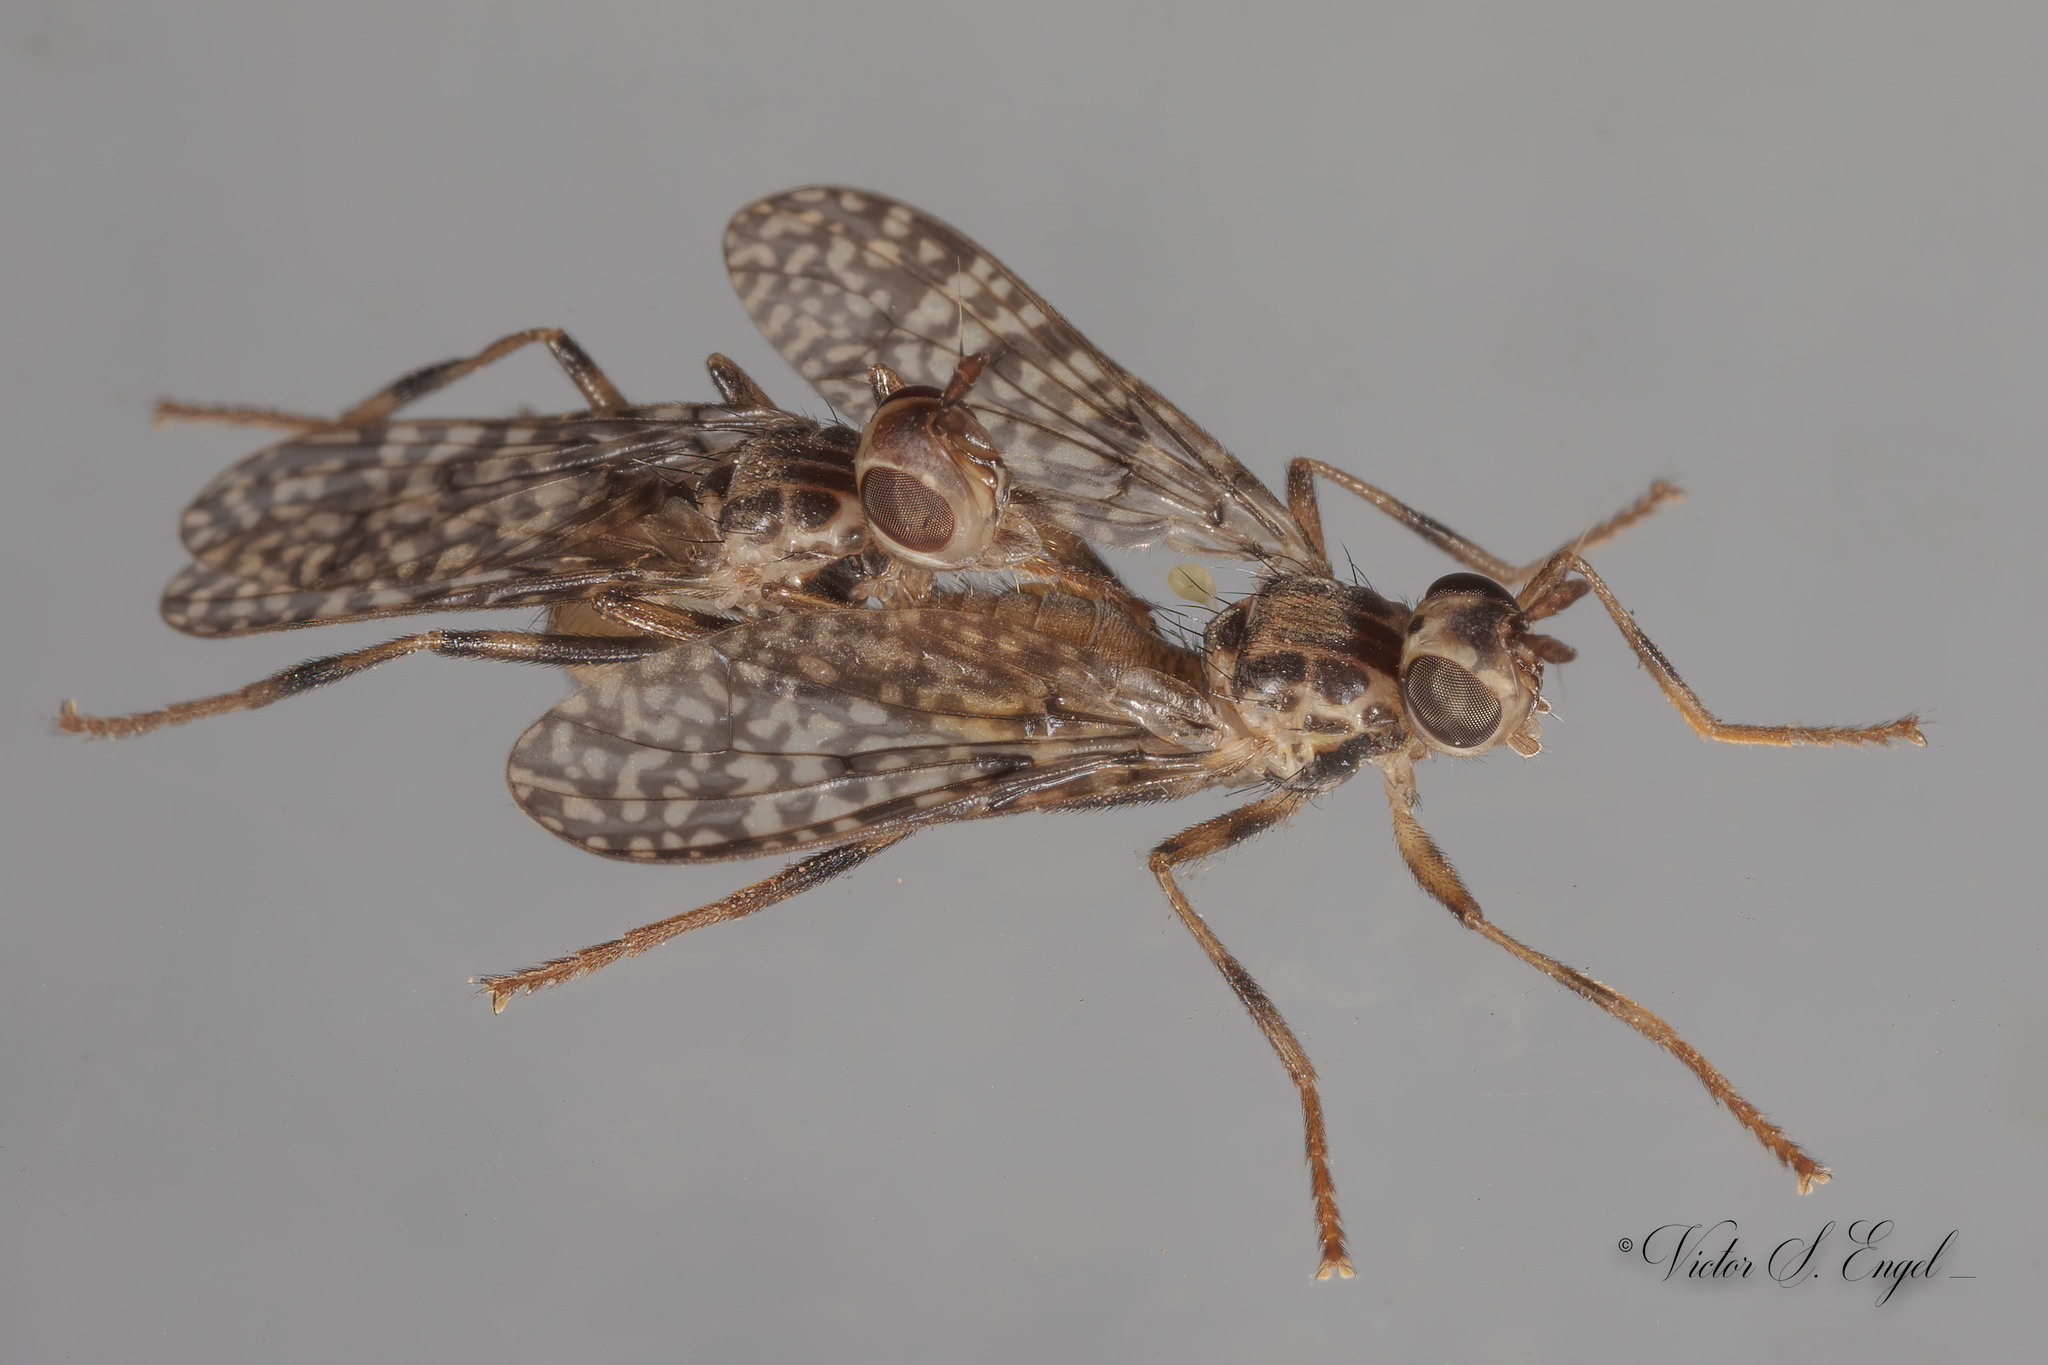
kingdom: Animalia
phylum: Arthropoda
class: Insecta
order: Diptera
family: Pyrgotidae
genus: Boreothrinax
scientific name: Boreothrinax
